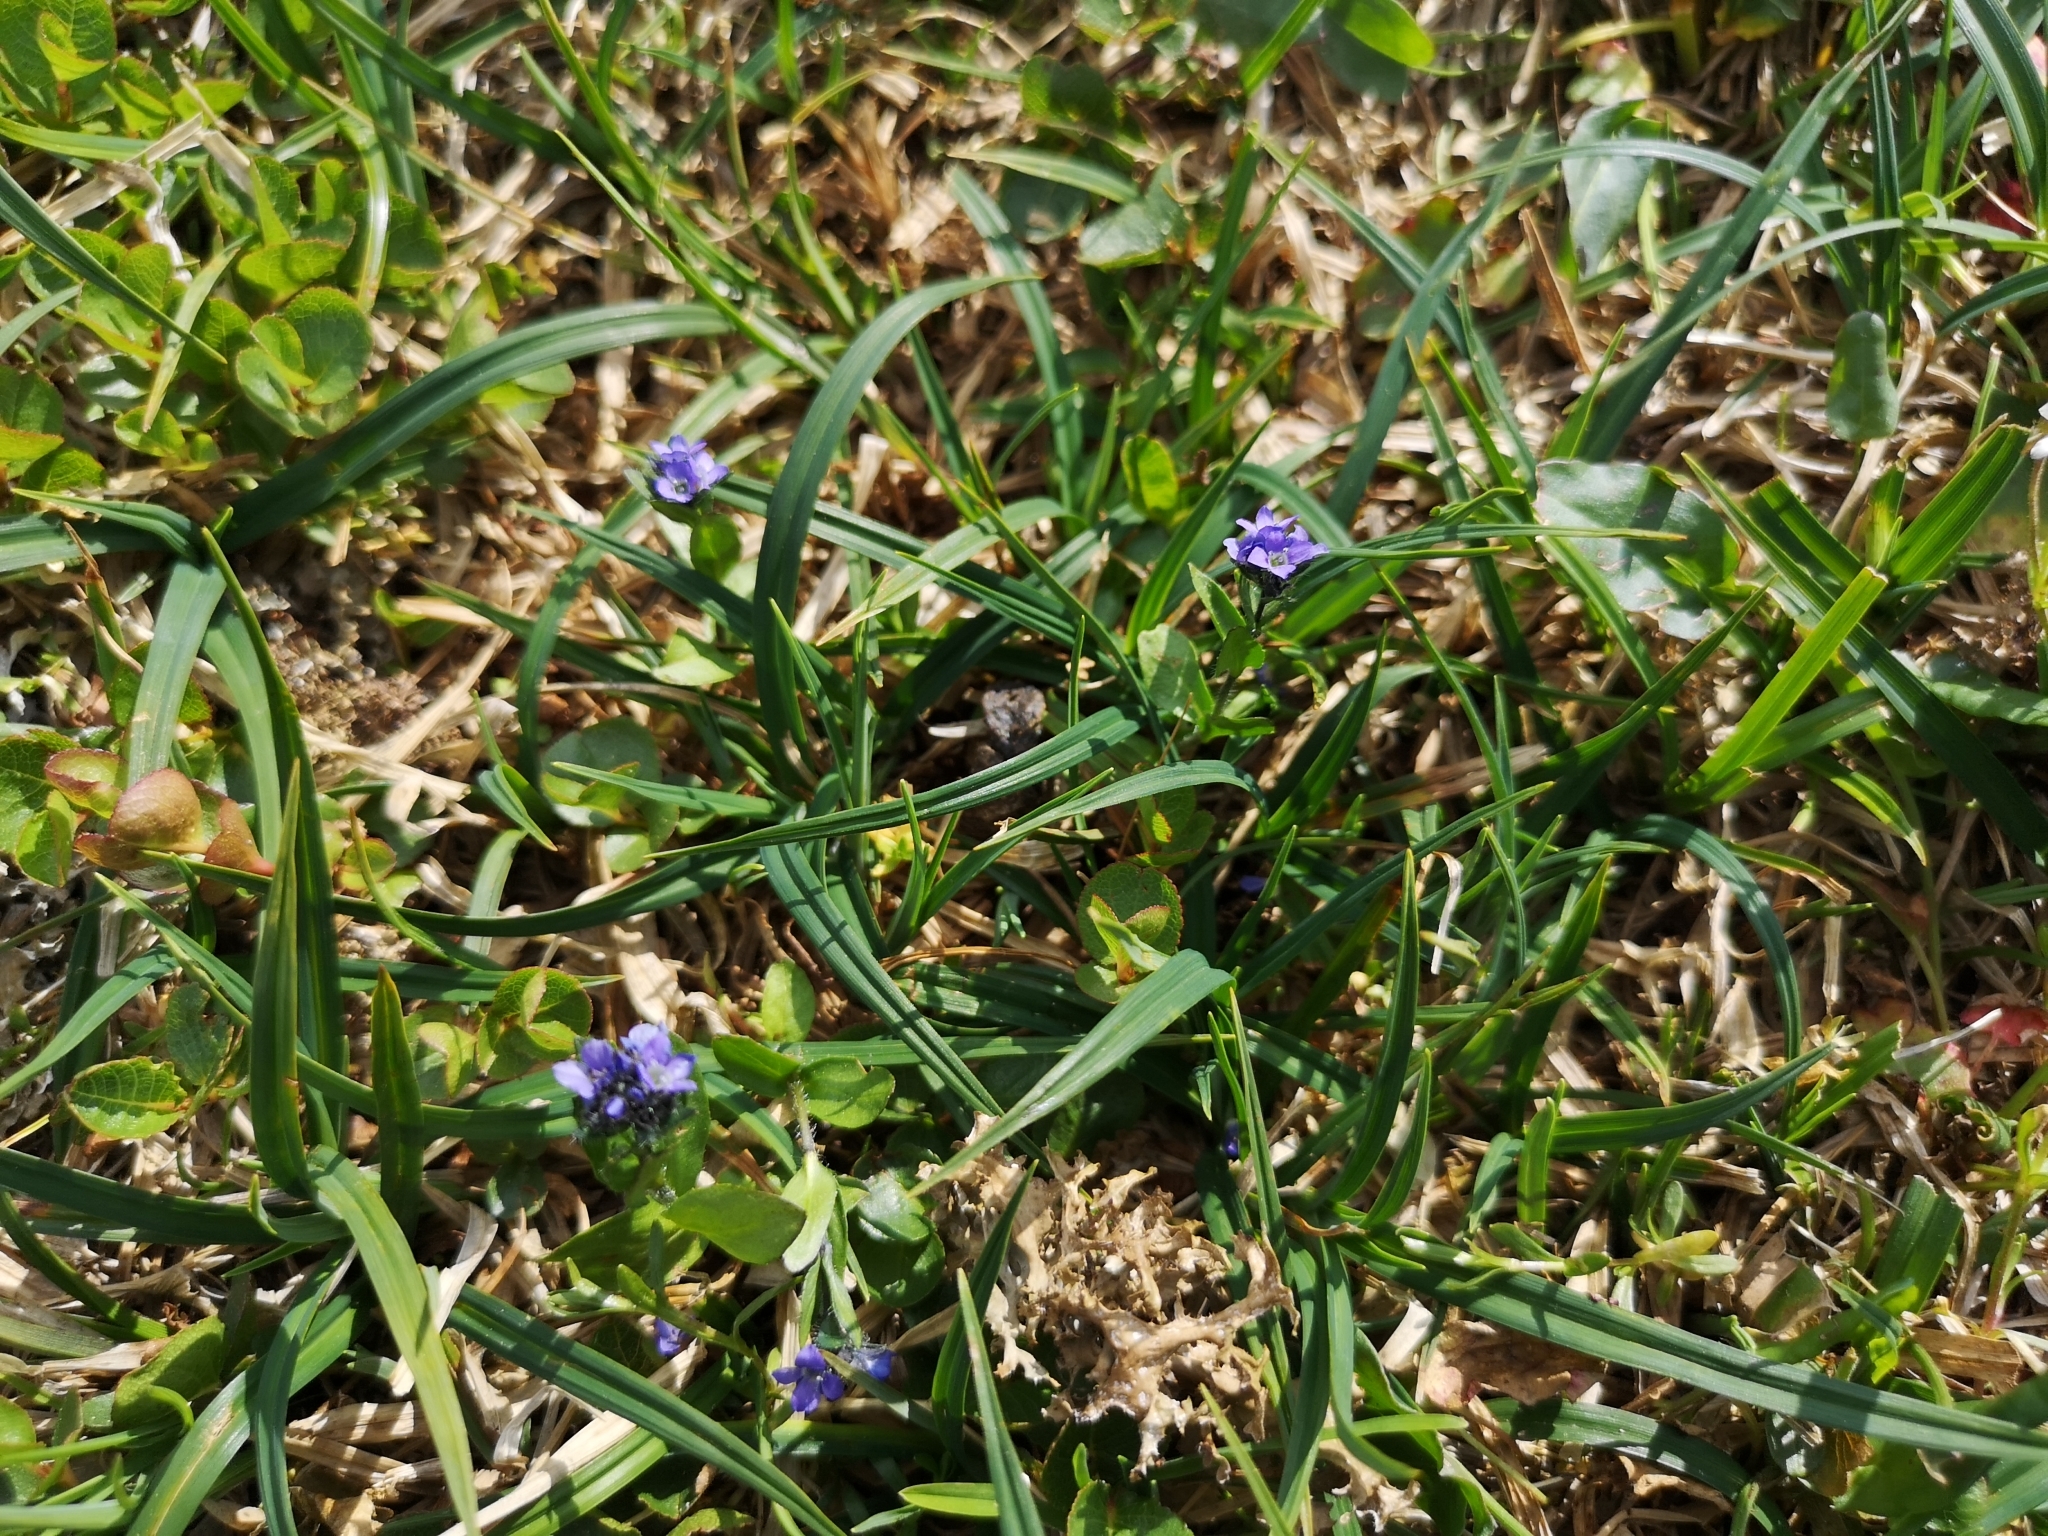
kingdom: Plantae
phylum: Tracheophyta
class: Magnoliopsida
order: Lamiales
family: Plantaginaceae
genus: Veronica
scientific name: Veronica alpina
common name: Alpine speedwell
